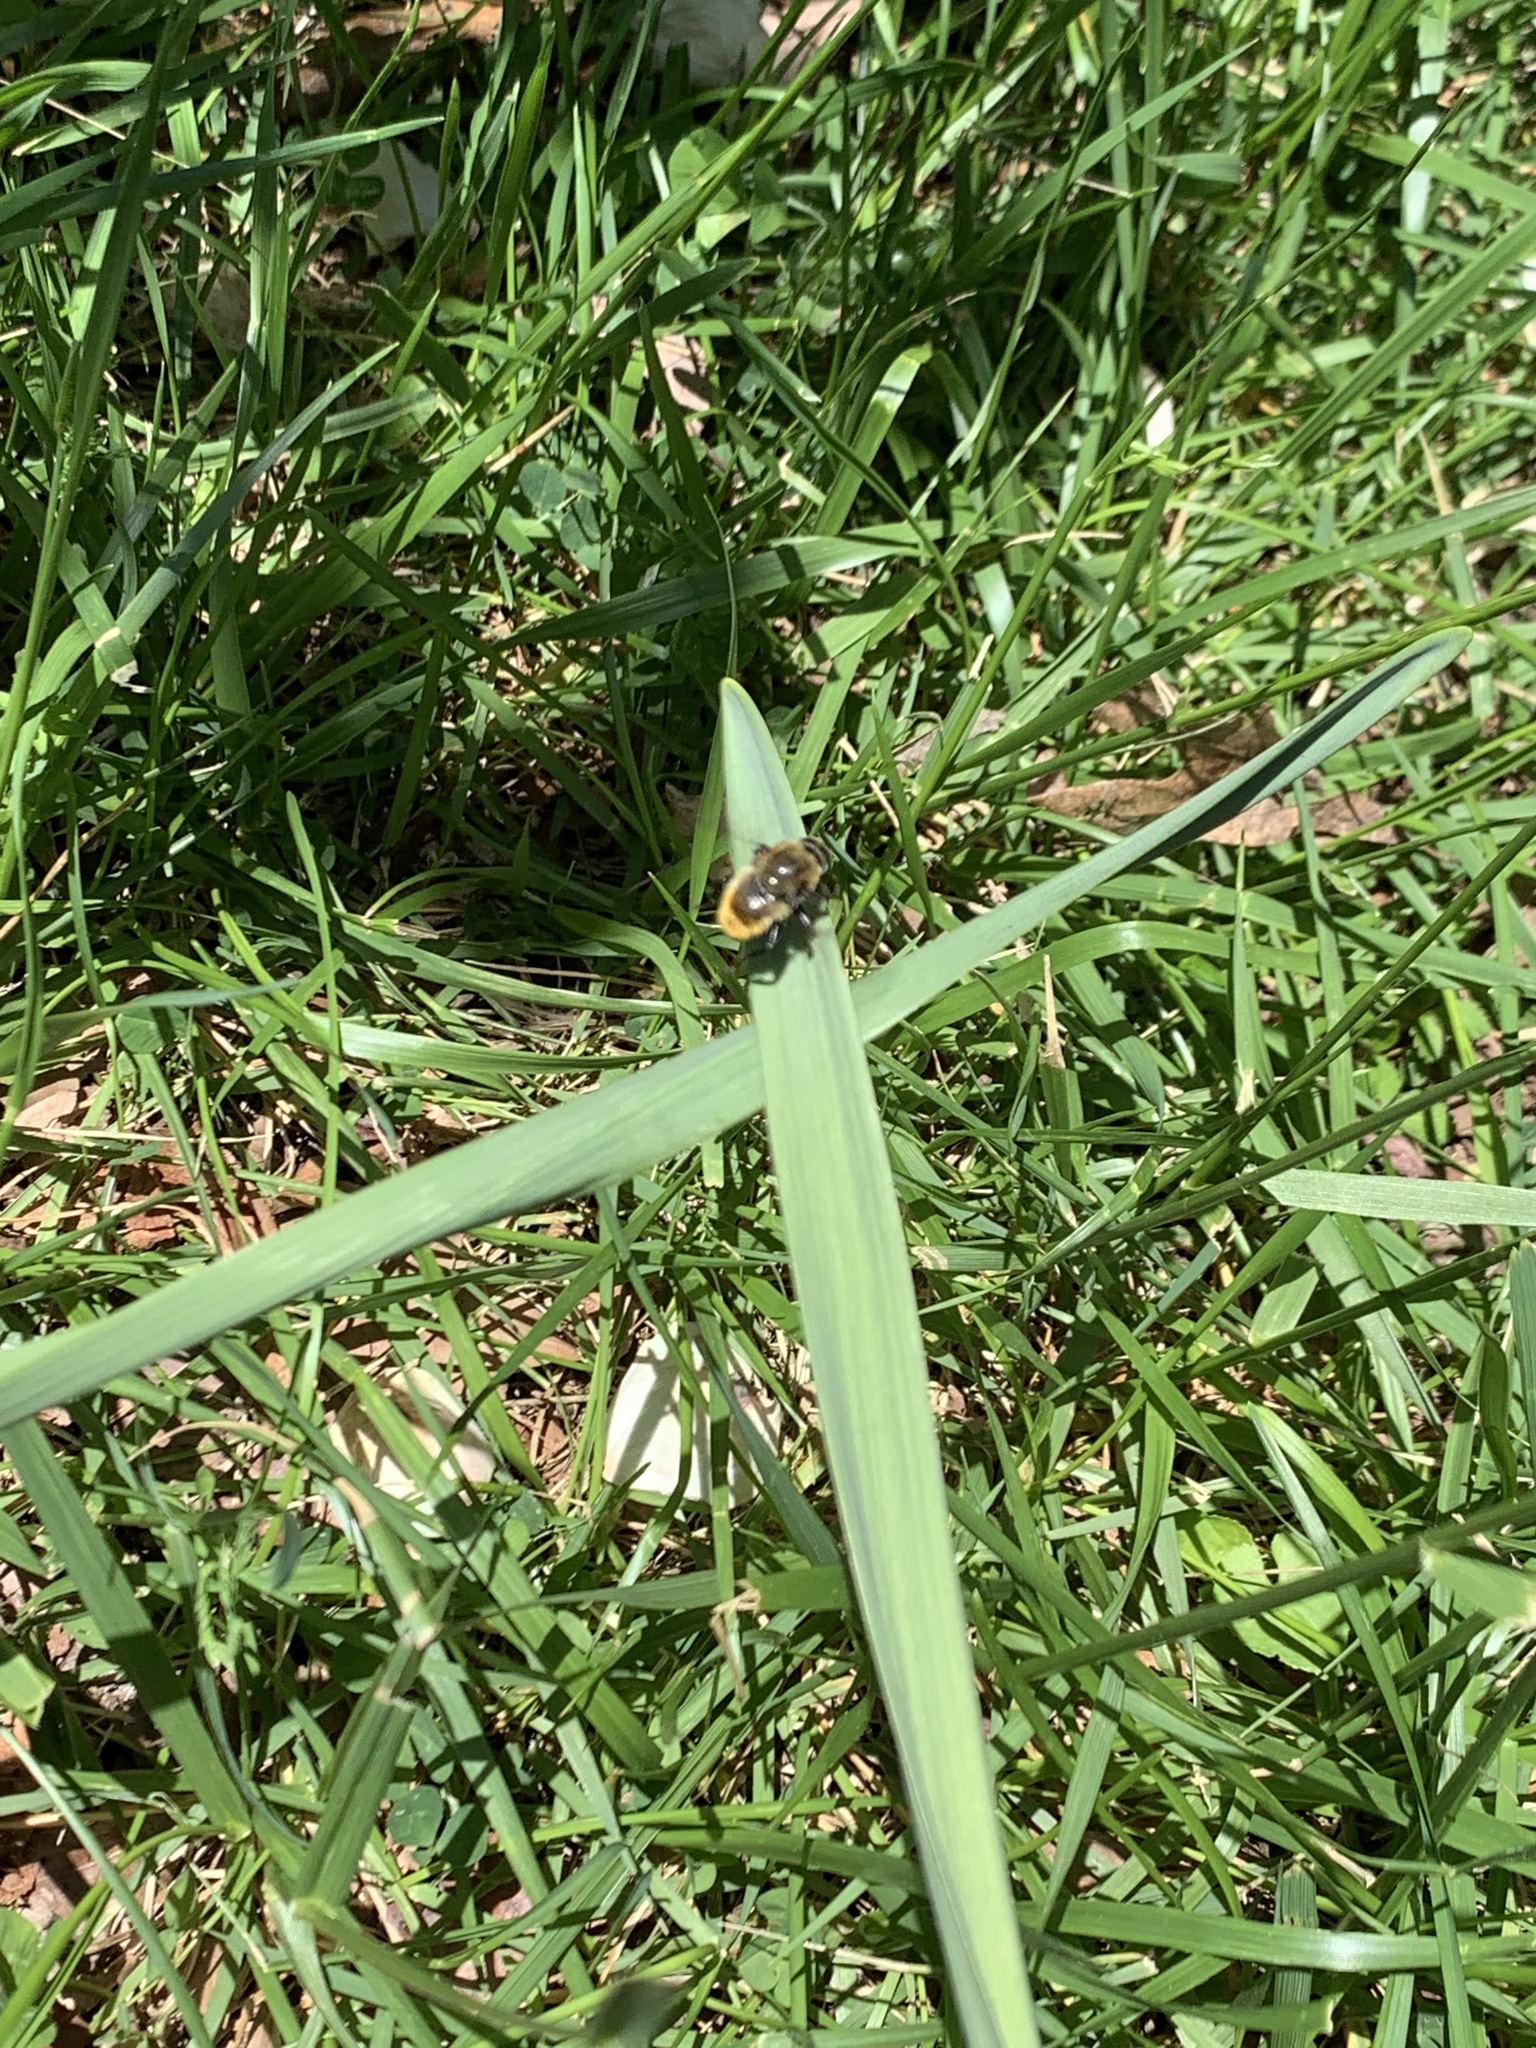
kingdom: Animalia
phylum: Arthropoda
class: Insecta
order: Diptera
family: Syrphidae
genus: Merodon
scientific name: Merodon equestris
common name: Greater bulb-fly
